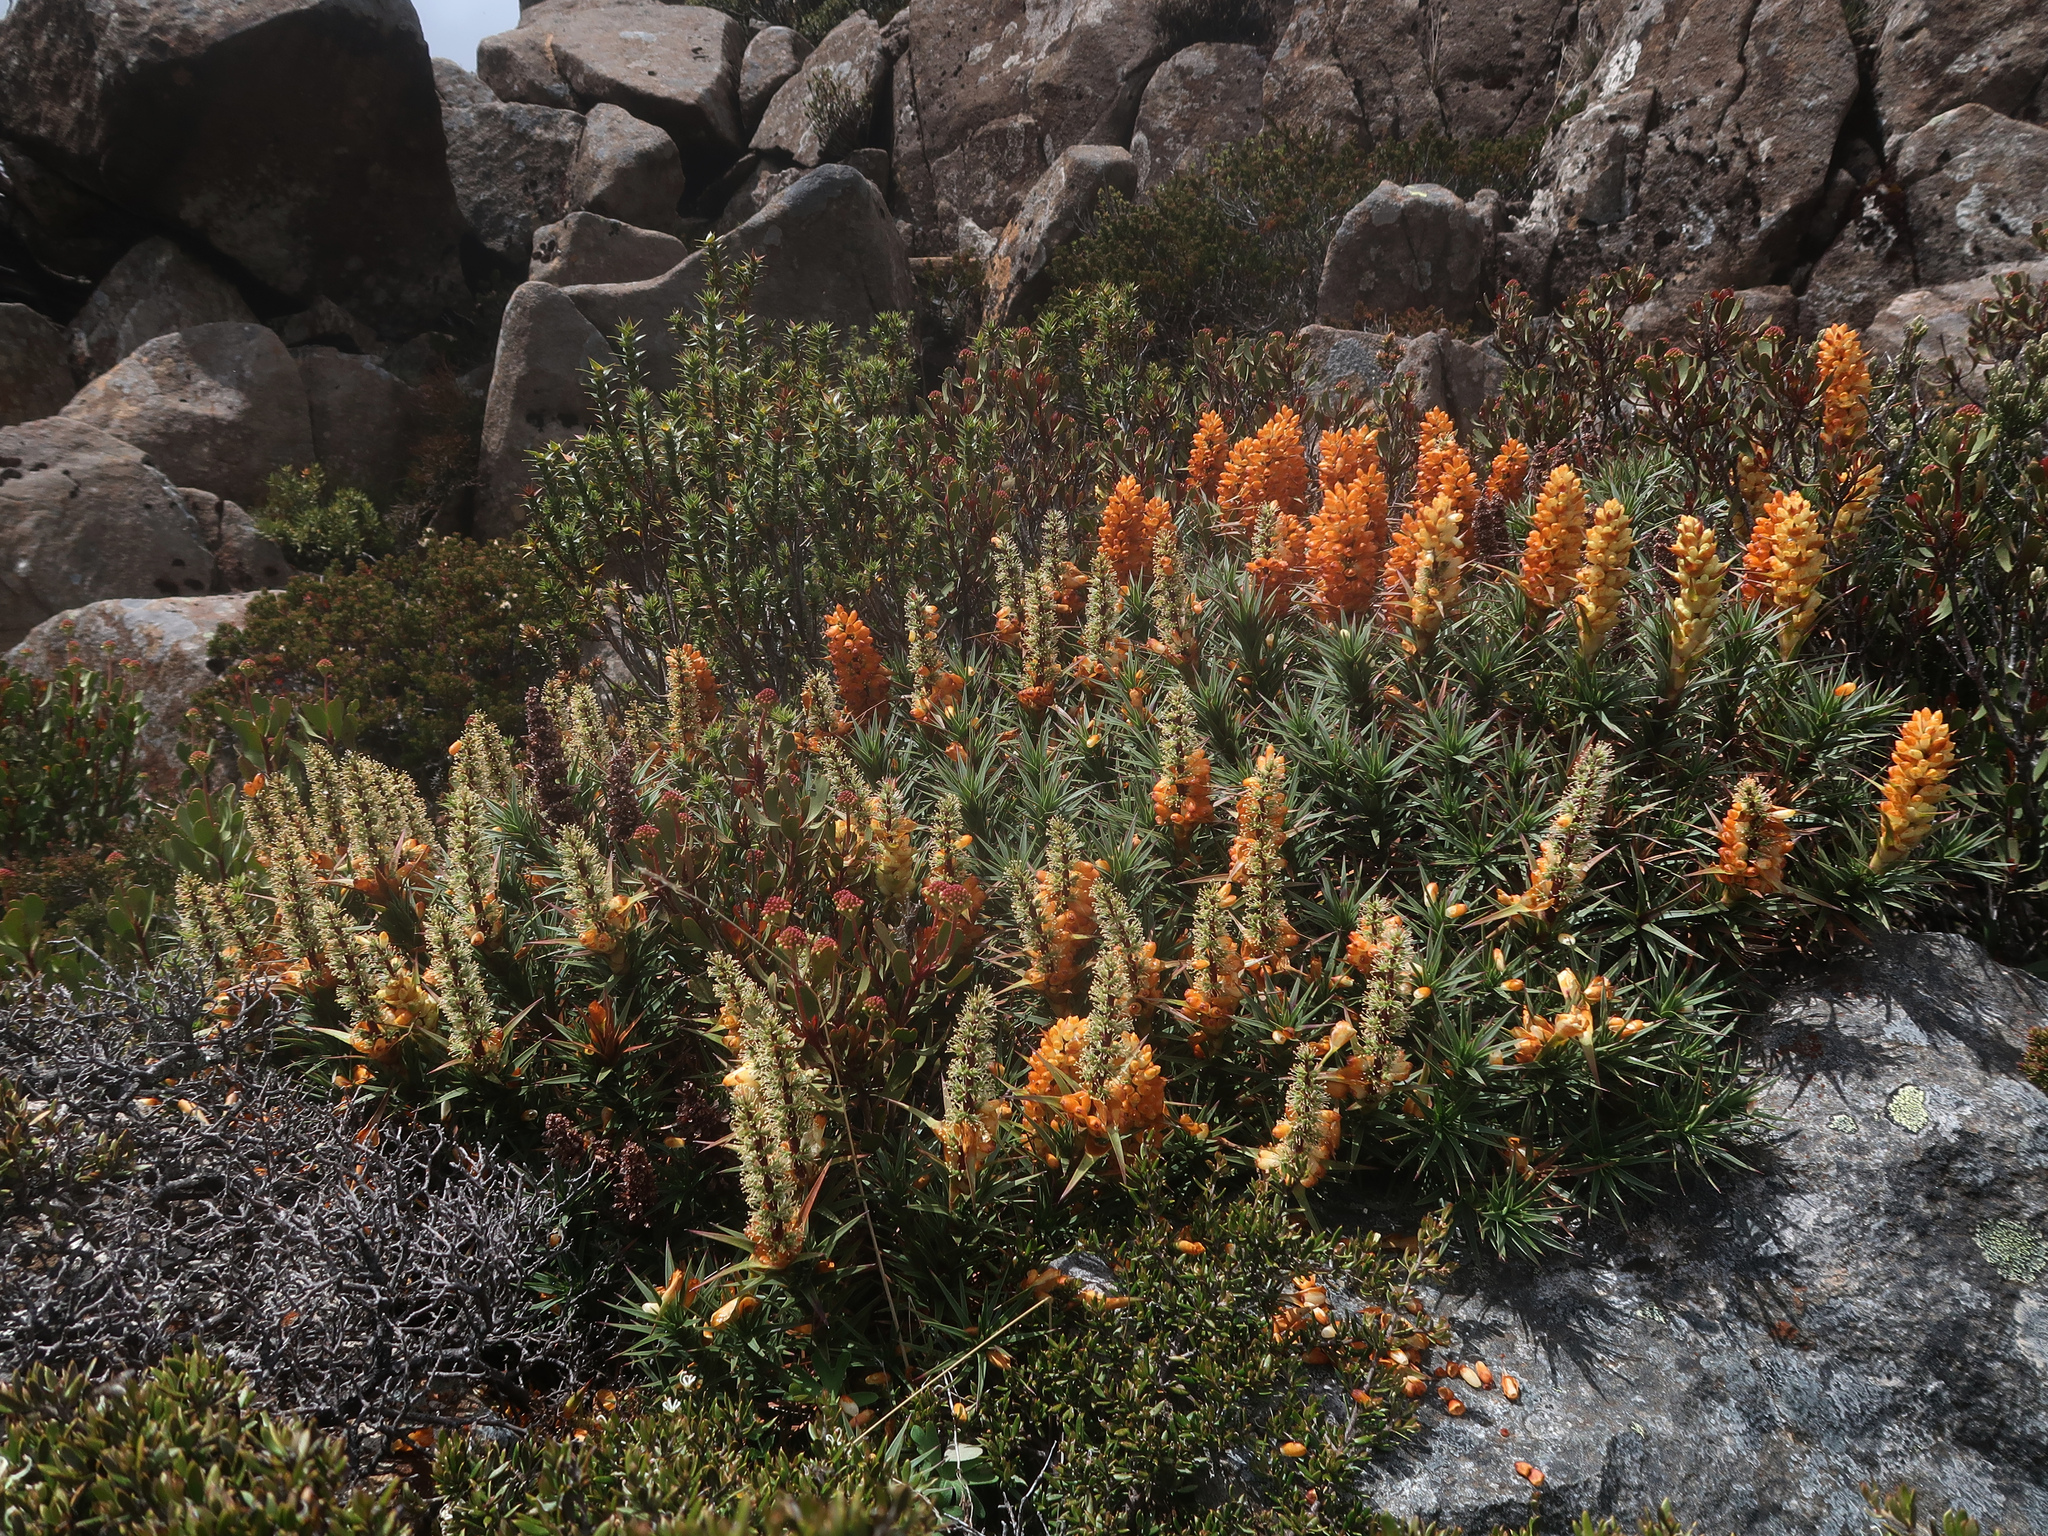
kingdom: Plantae
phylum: Tracheophyta
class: Magnoliopsida
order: Ericales
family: Ericaceae
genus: Dracophyllum
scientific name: Dracophyllum persistentifolium
